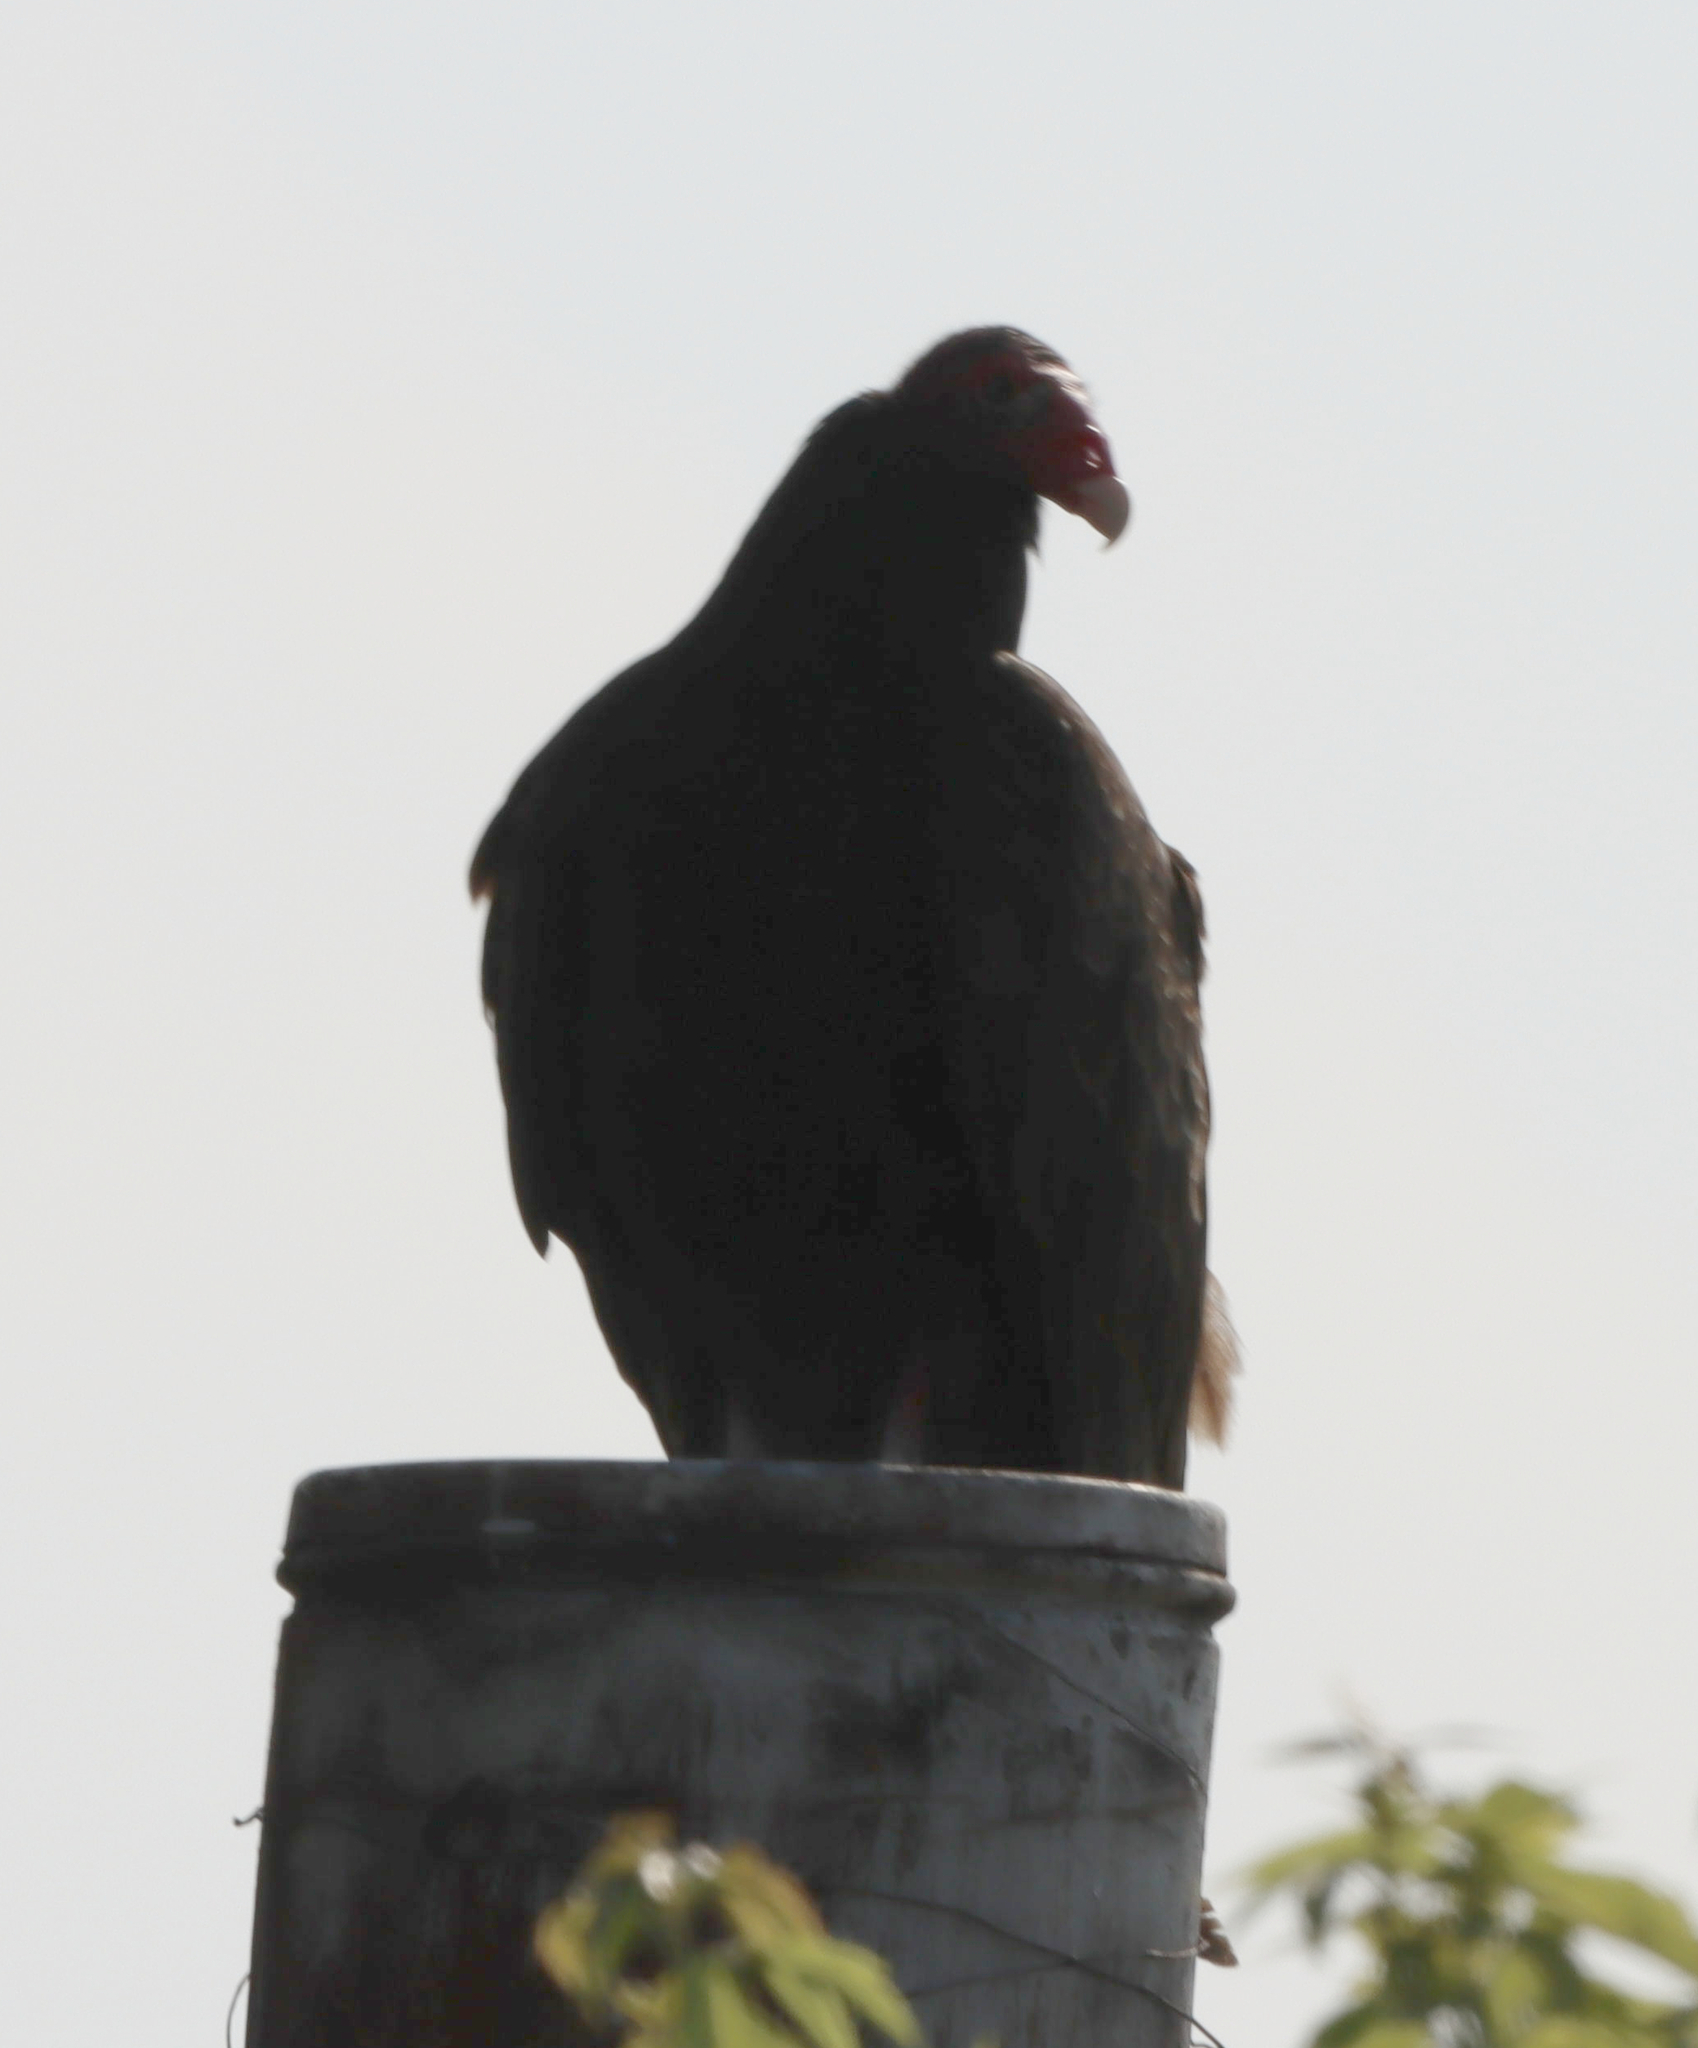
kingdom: Animalia
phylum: Chordata
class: Aves
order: Accipitriformes
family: Cathartidae
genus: Cathartes
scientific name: Cathartes aura
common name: Turkey vulture
